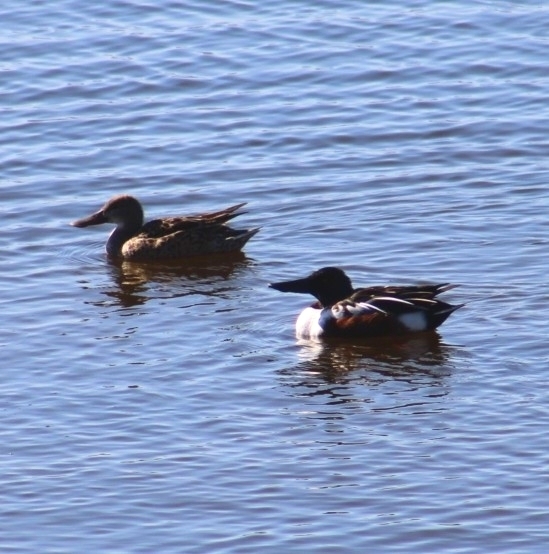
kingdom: Animalia
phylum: Chordata
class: Aves
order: Anseriformes
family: Anatidae
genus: Spatula
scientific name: Spatula clypeata
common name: Northern shoveler
